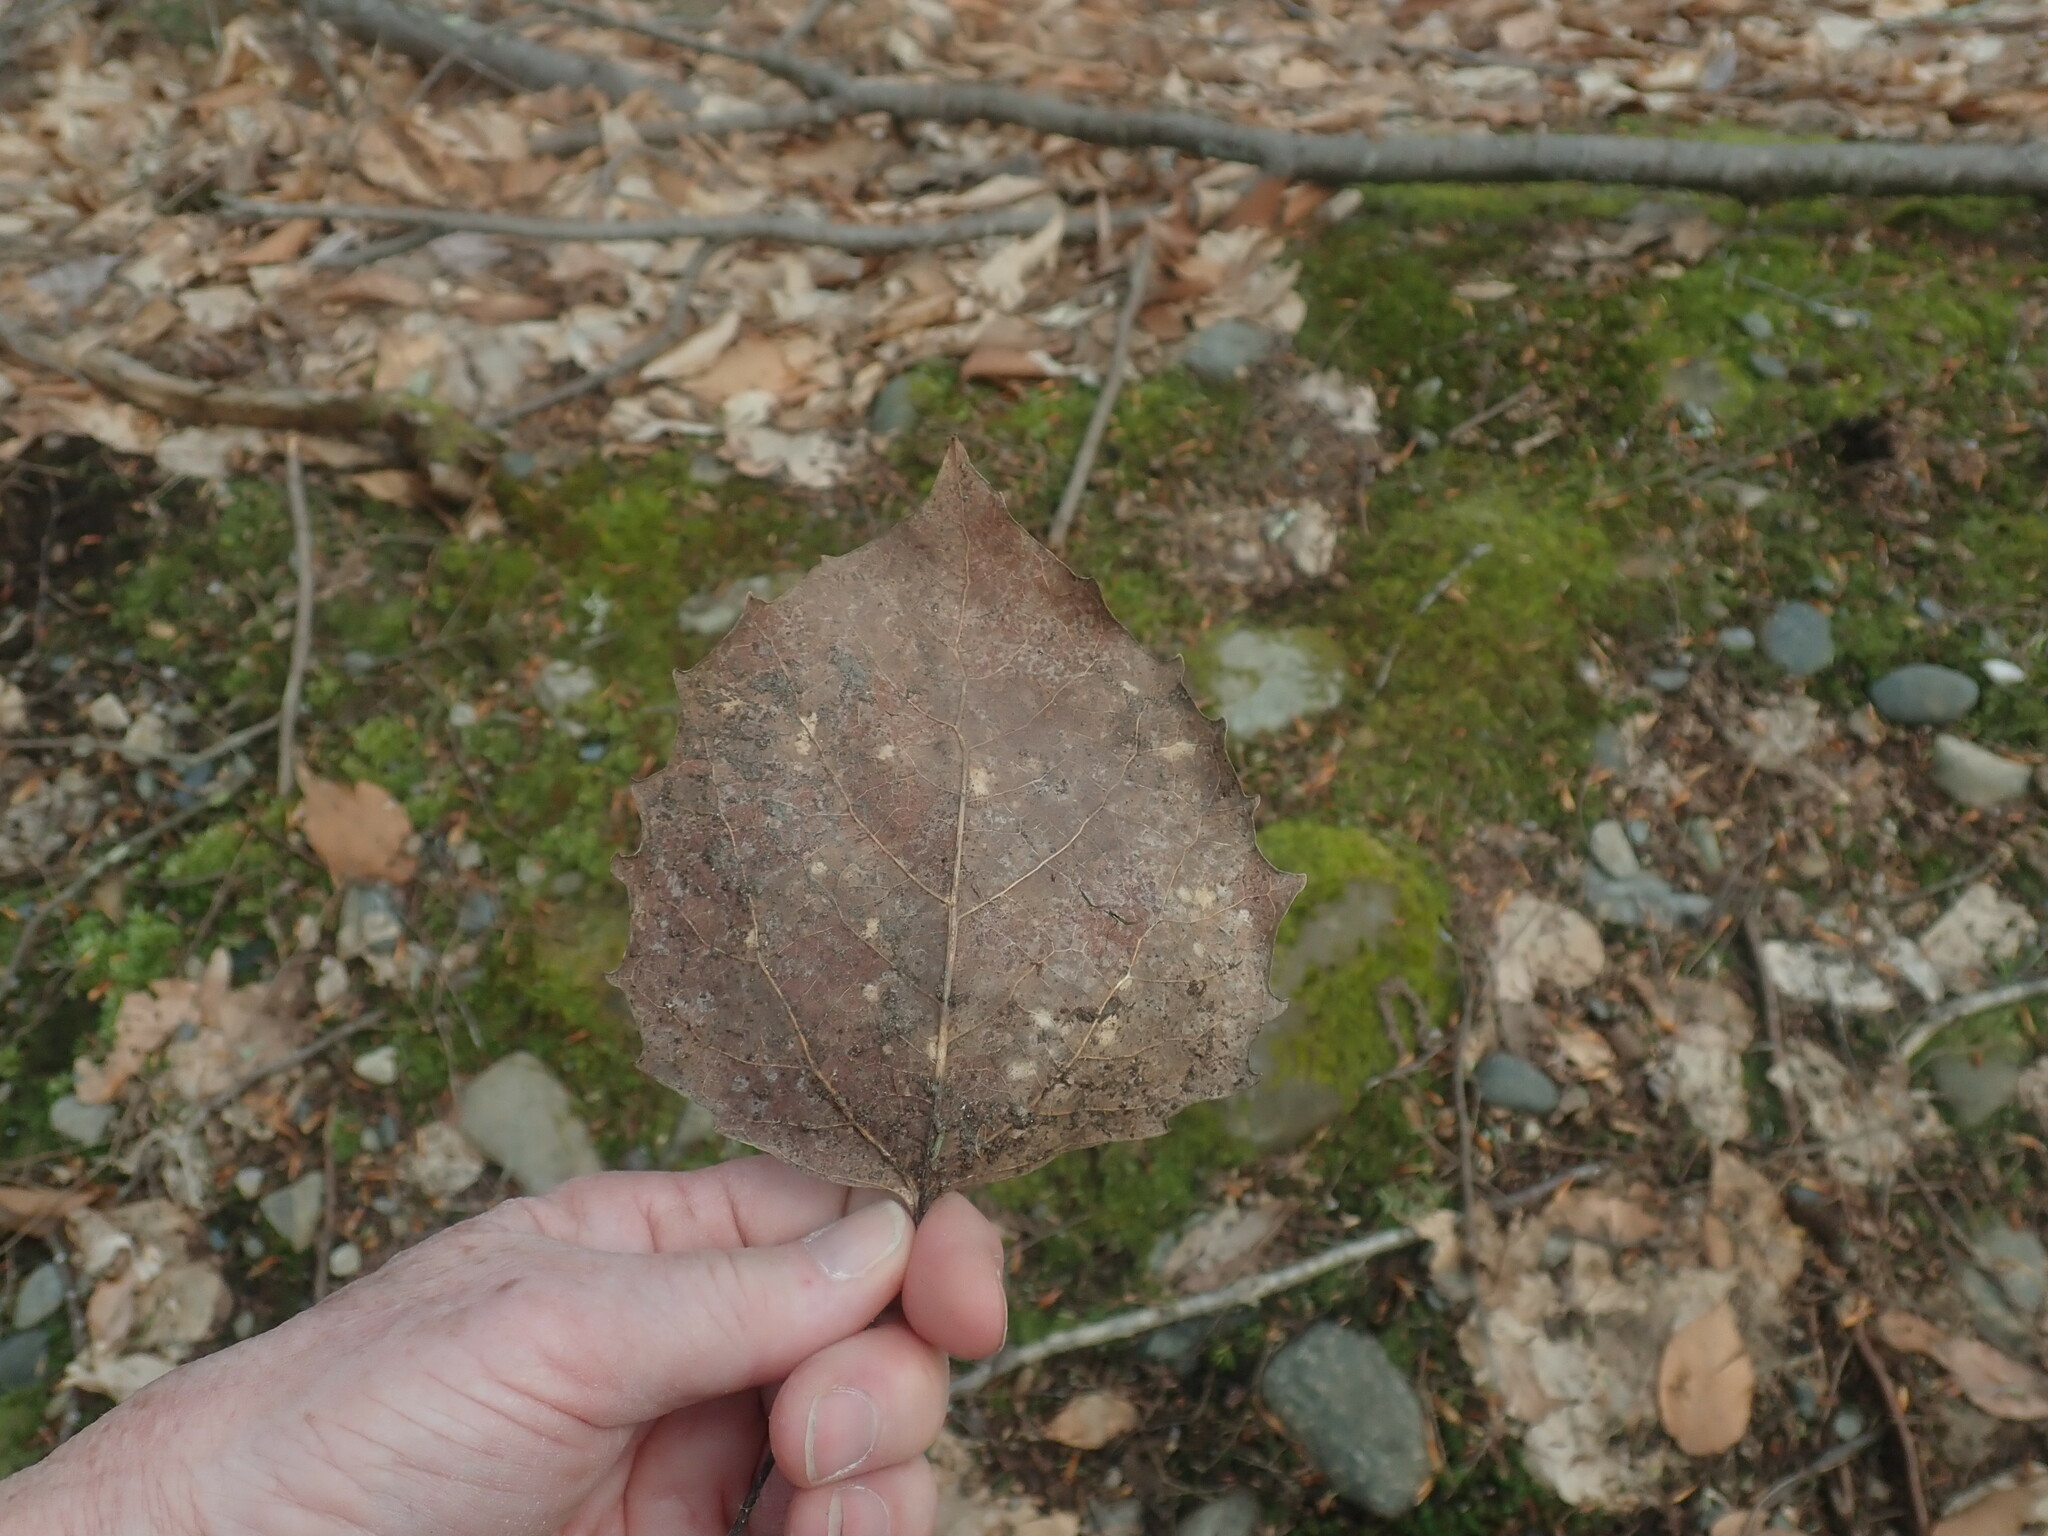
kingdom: Plantae
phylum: Tracheophyta
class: Magnoliopsida
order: Malpighiales
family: Salicaceae
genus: Populus
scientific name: Populus grandidentata
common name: Bigtooth aspen
